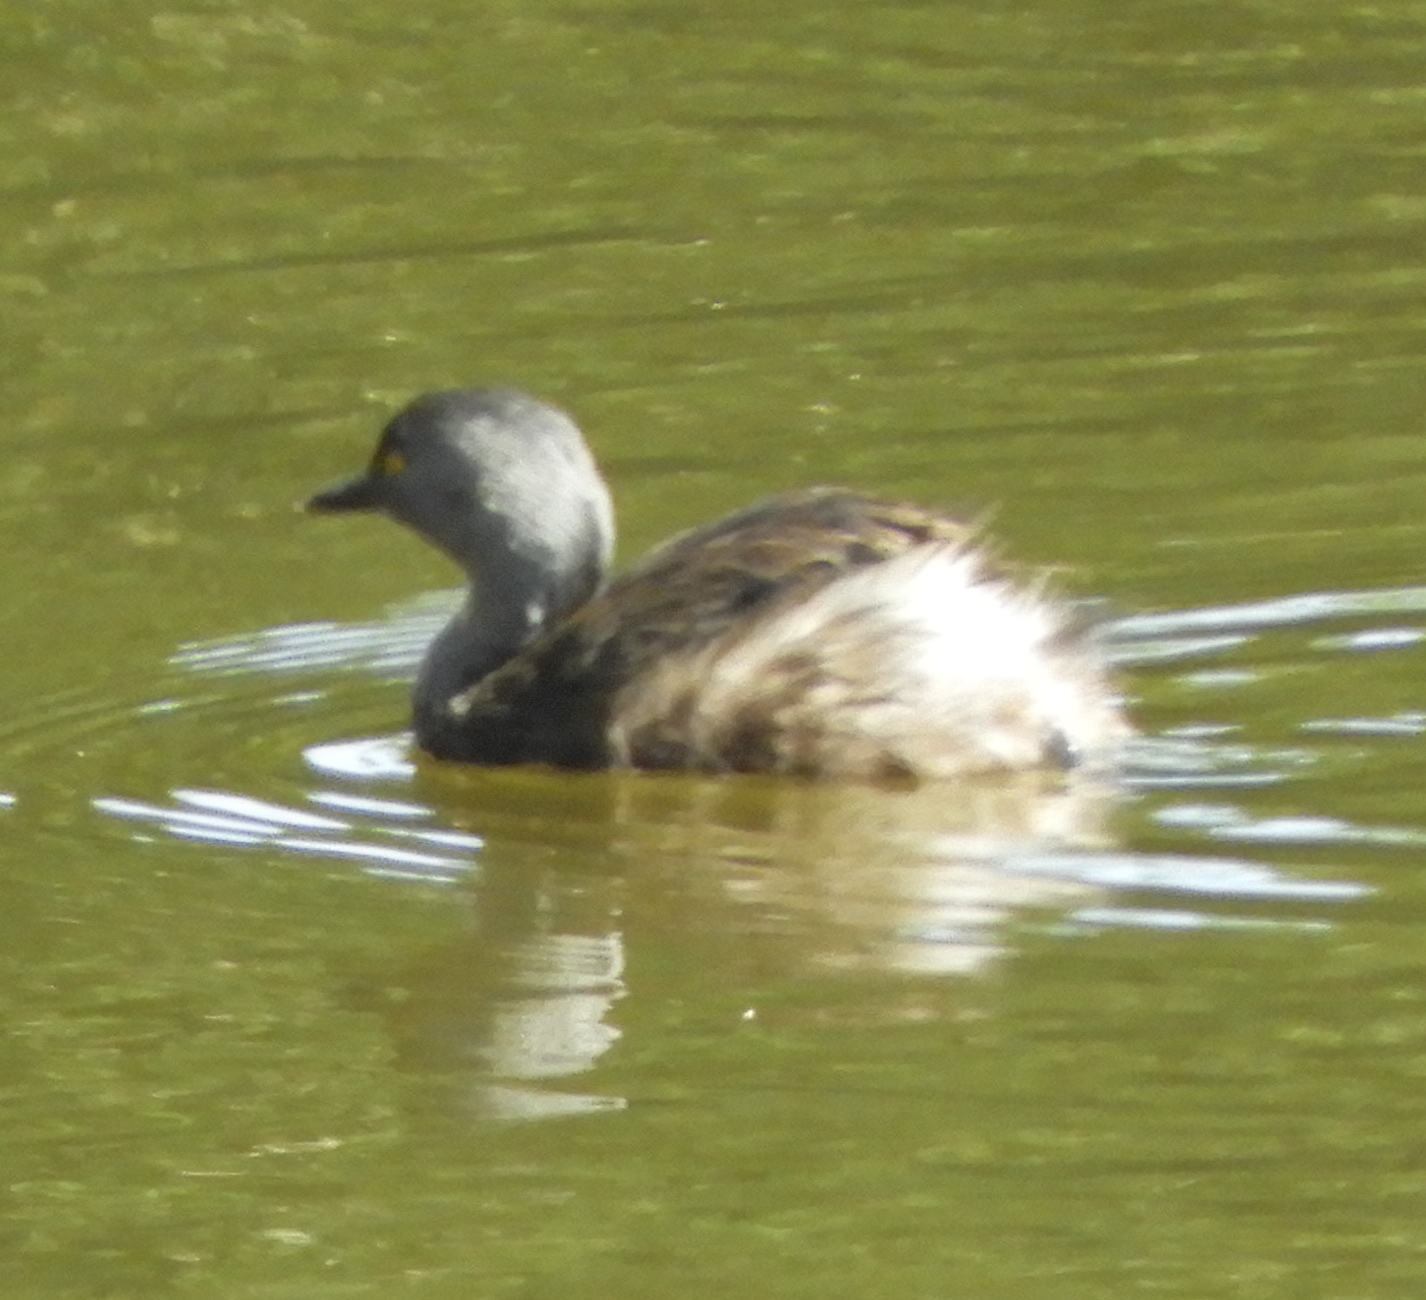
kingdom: Animalia
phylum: Chordata
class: Aves
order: Podicipediformes
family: Podicipedidae
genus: Tachybaptus
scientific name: Tachybaptus dominicus
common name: Least grebe
